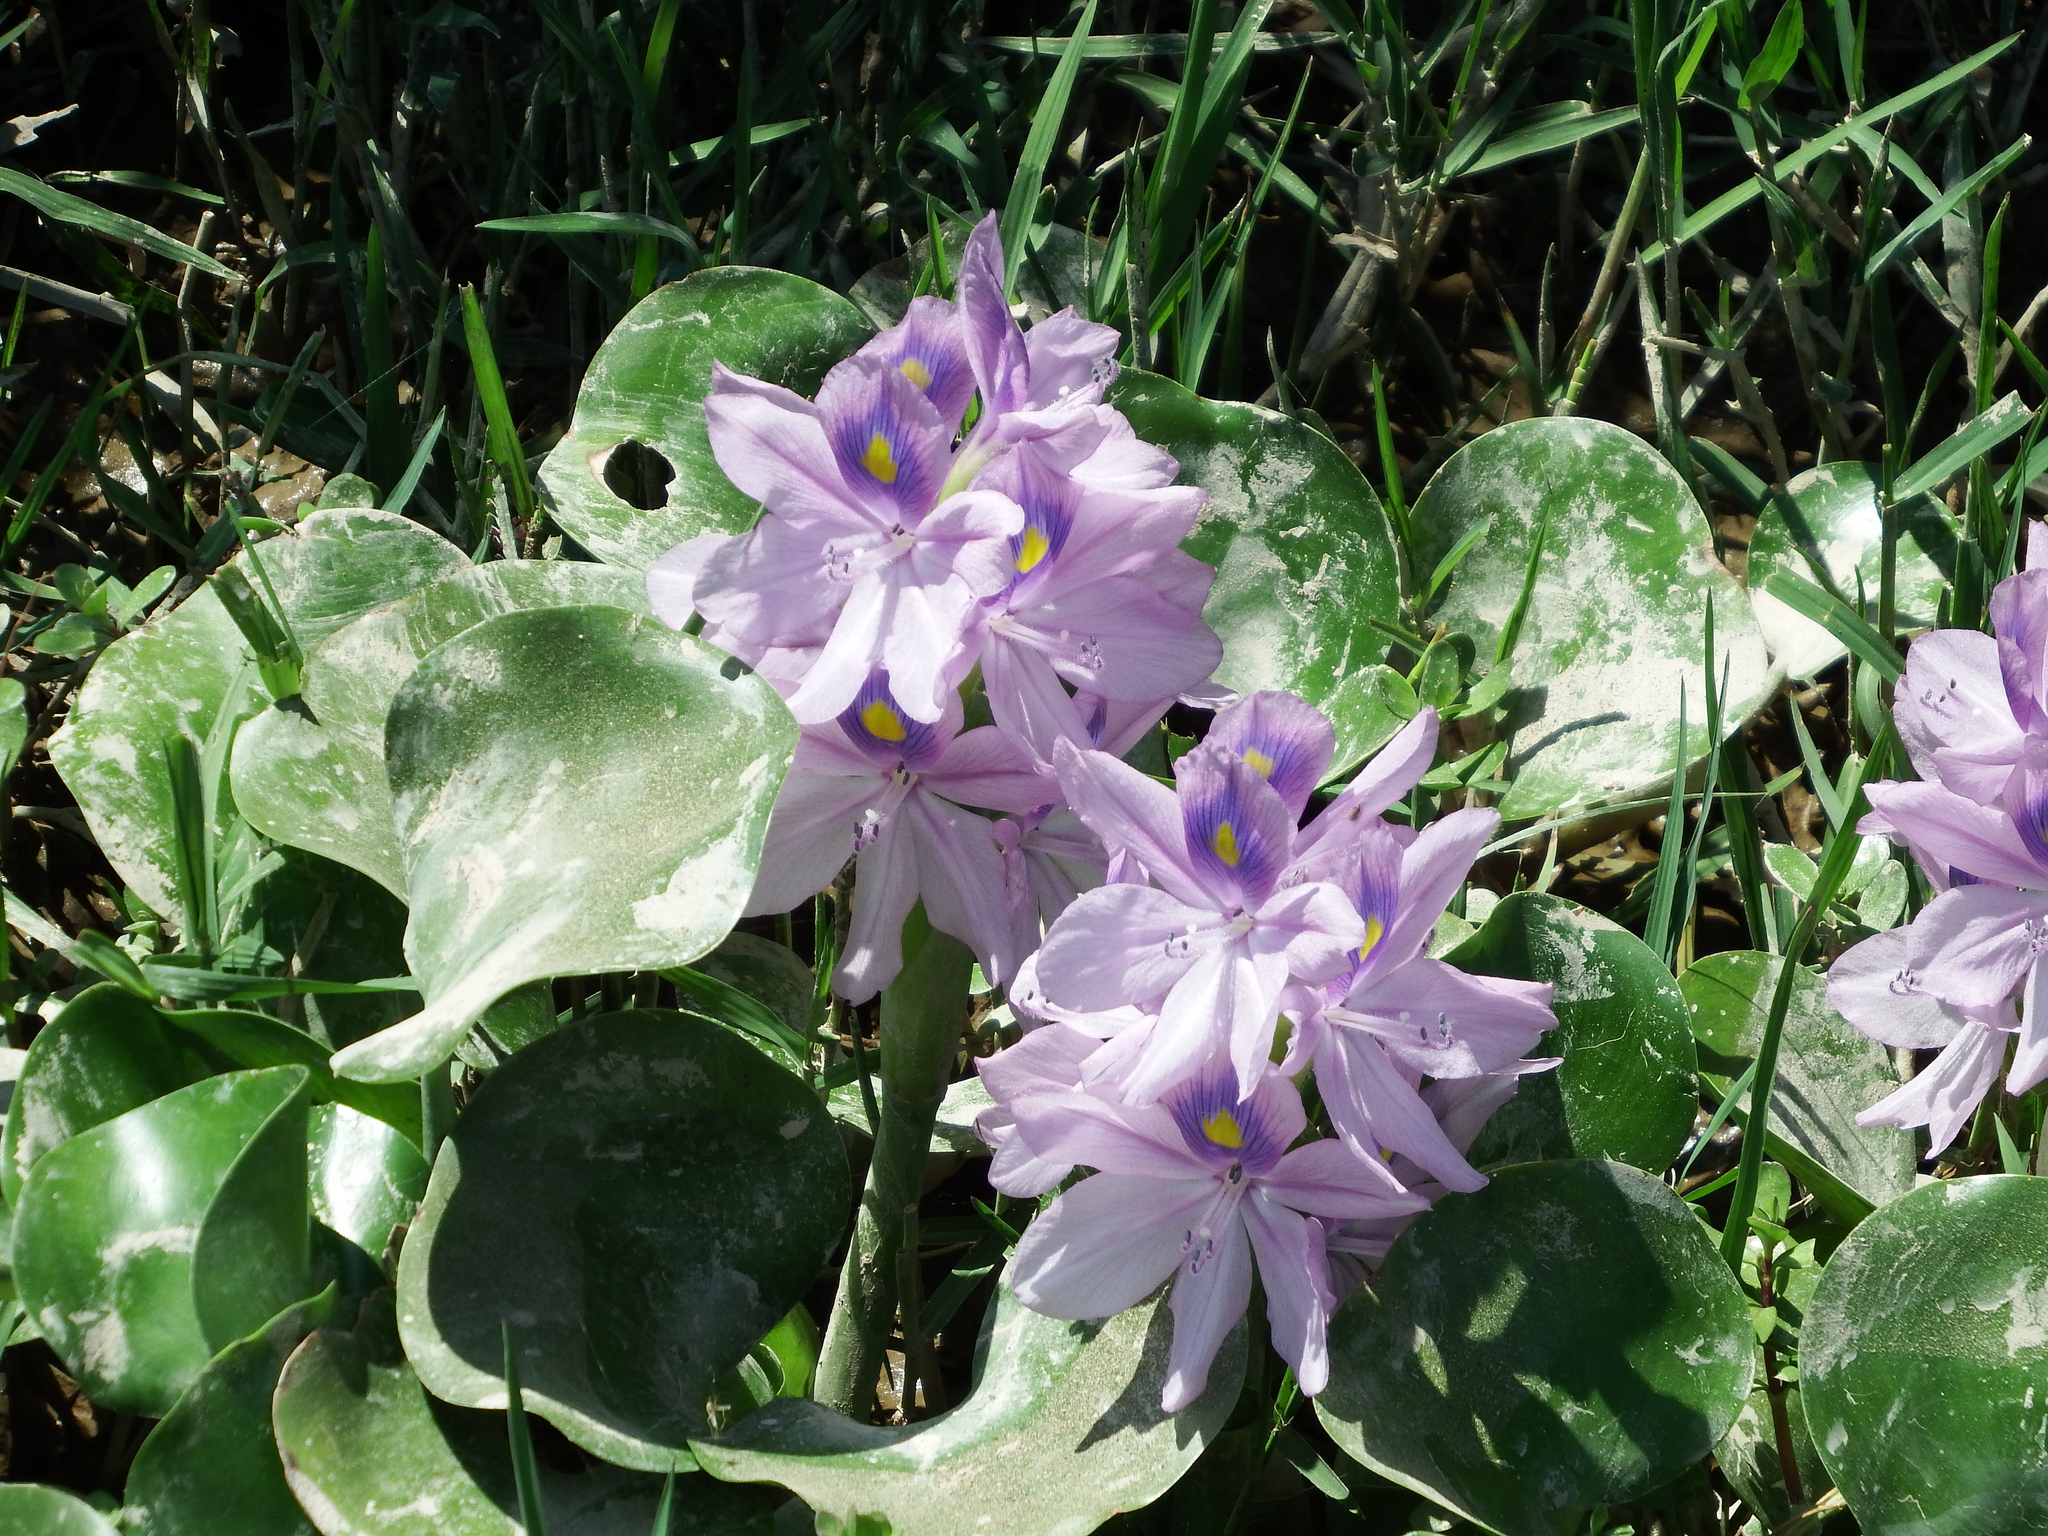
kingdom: Plantae
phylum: Tracheophyta
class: Liliopsida
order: Commelinales
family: Pontederiaceae
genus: Pontederia
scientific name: Pontederia crassipes
